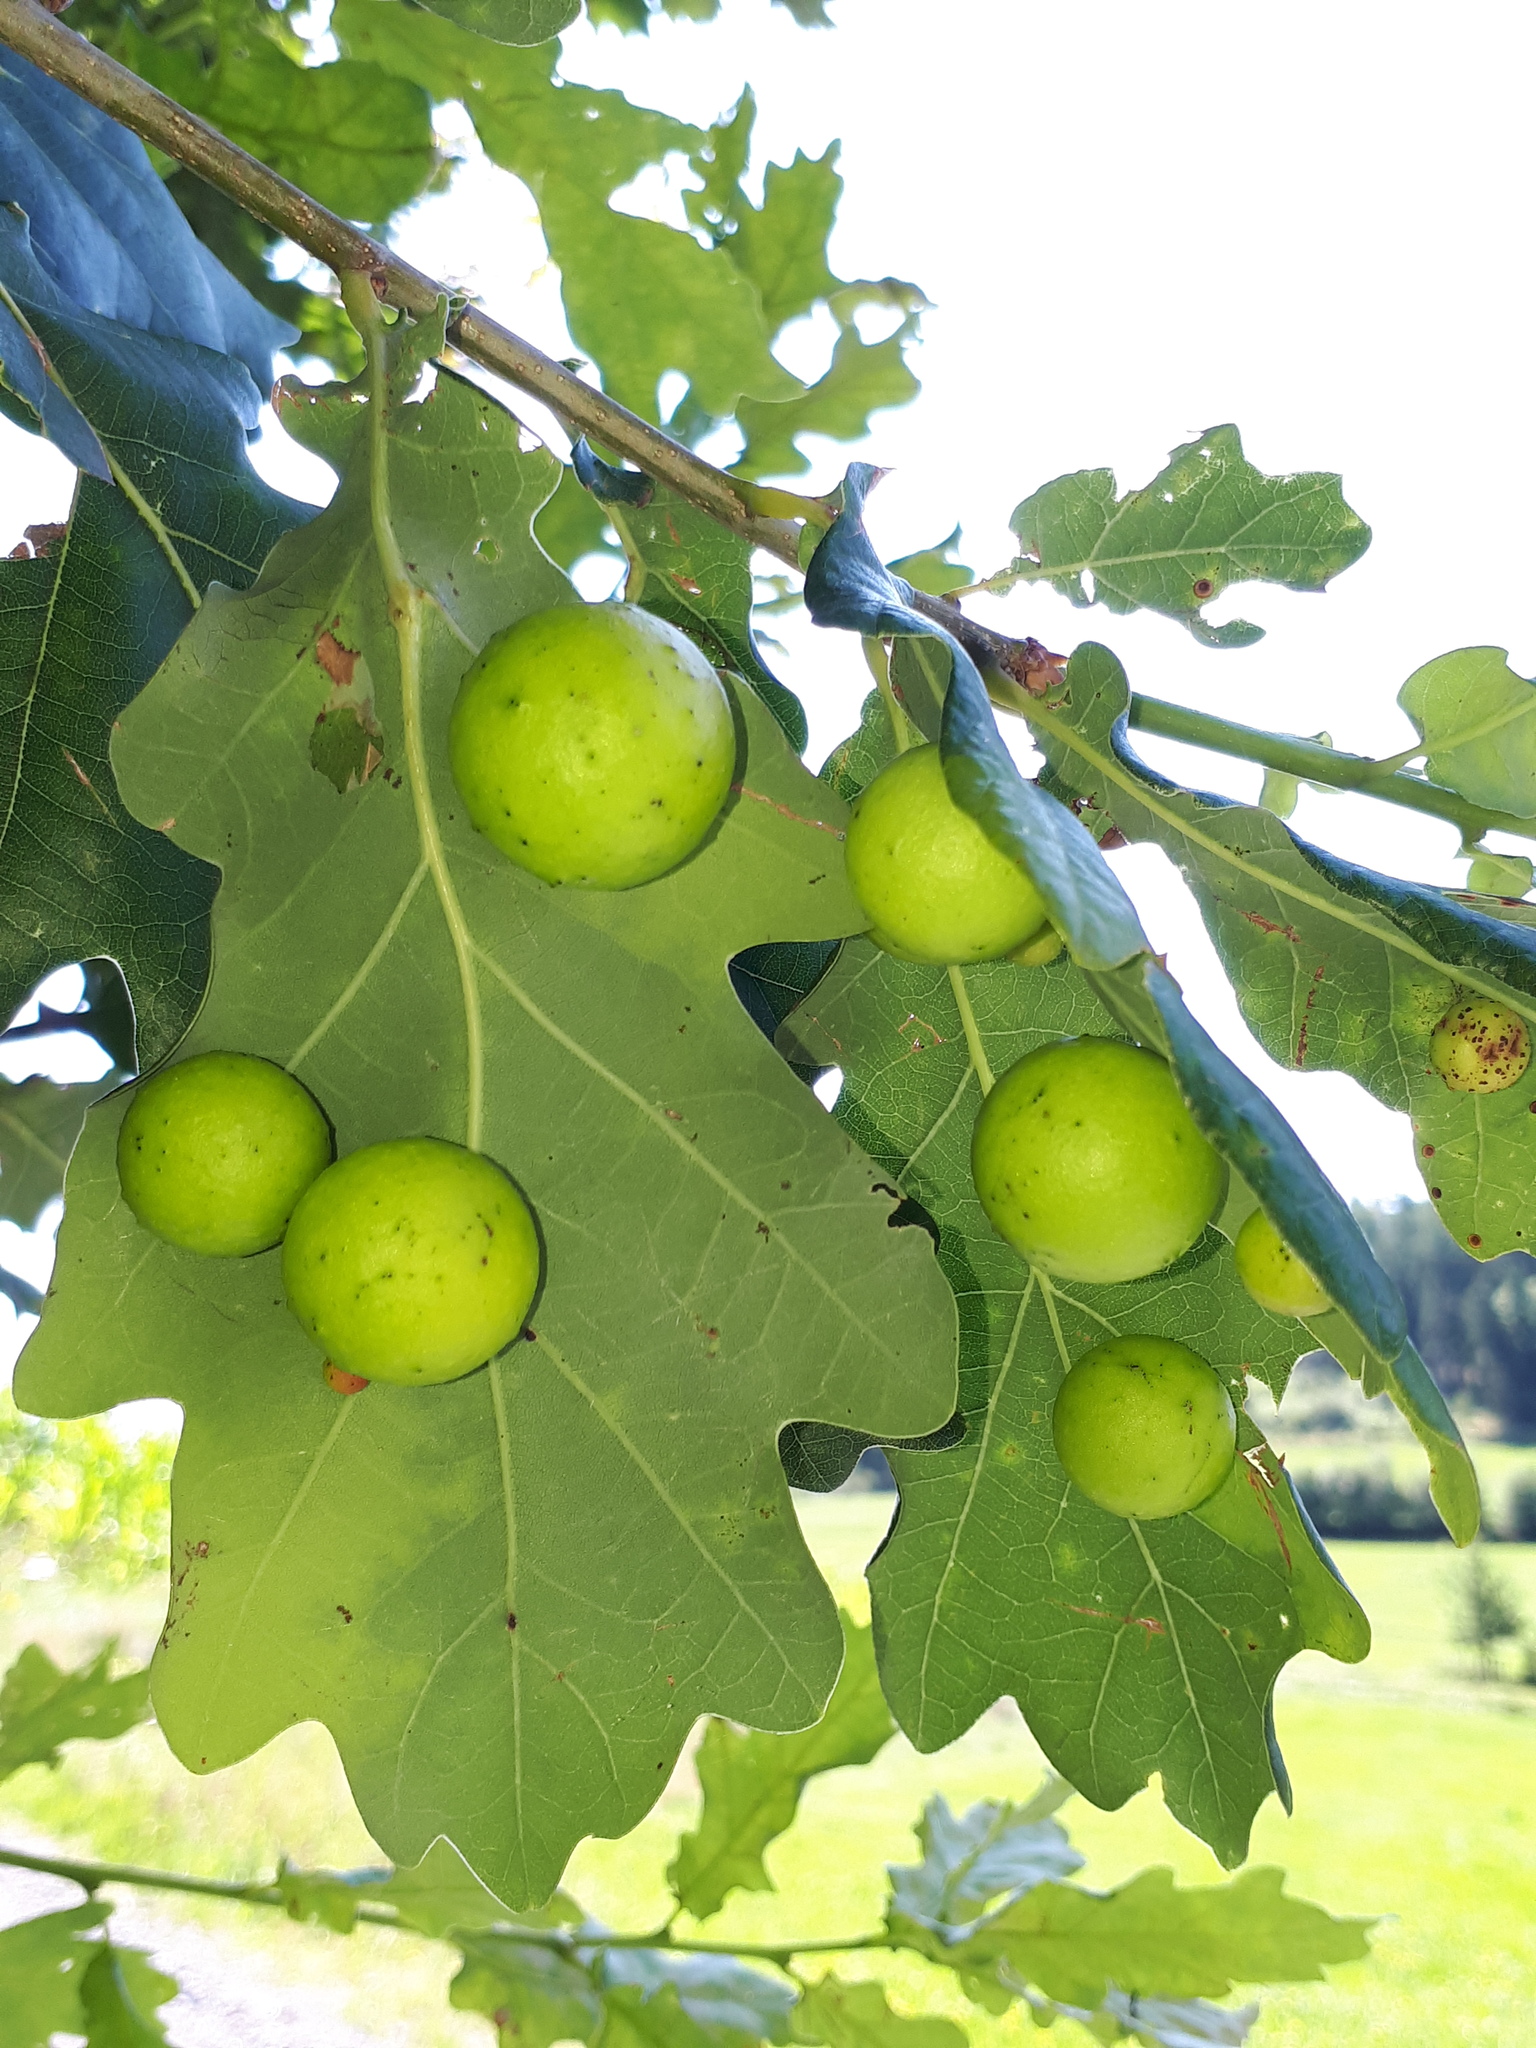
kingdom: Animalia
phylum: Arthropoda
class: Insecta
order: Hymenoptera
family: Cynipidae
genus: Cynips
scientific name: Cynips quercusfolii
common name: Cherry gall
